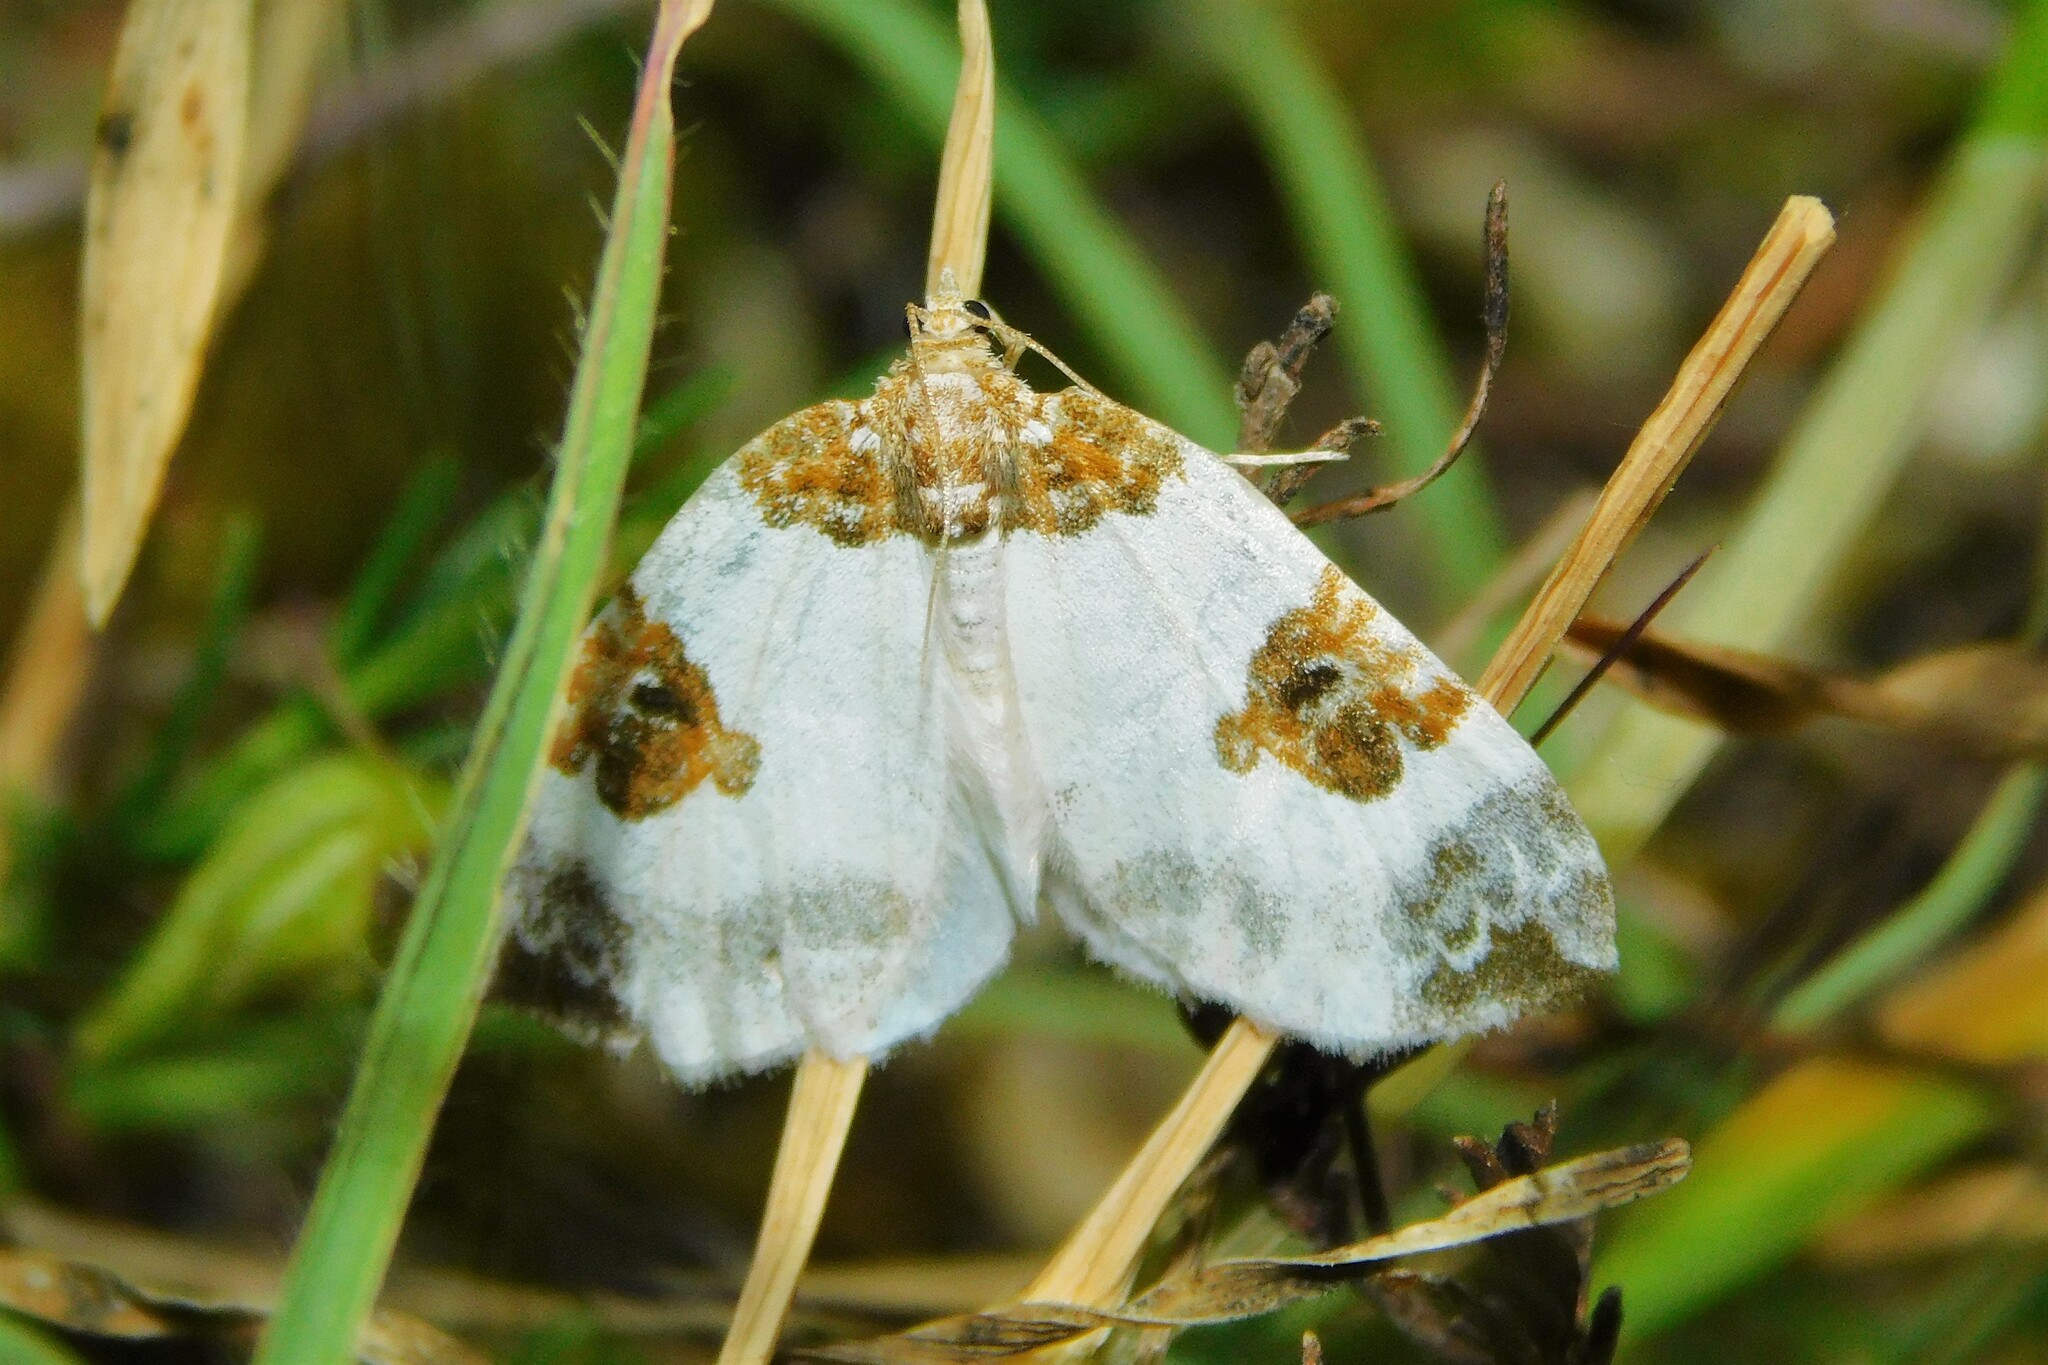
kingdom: Animalia
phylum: Arthropoda
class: Insecta
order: Lepidoptera
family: Geometridae
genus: Plemyria
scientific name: Plemyria rubiginata
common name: Blue-bordered carpet
